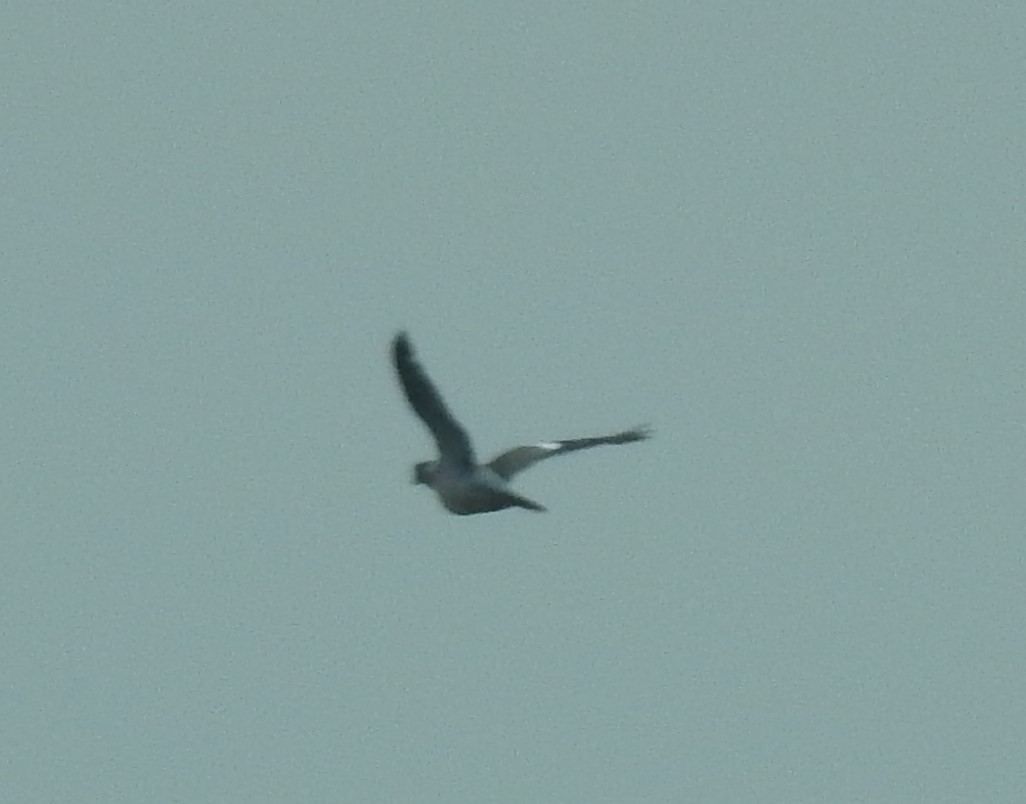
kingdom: Animalia
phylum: Chordata
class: Aves
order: Columbiformes
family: Columbidae
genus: Columba
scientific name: Columba palumbus
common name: Common wood pigeon
